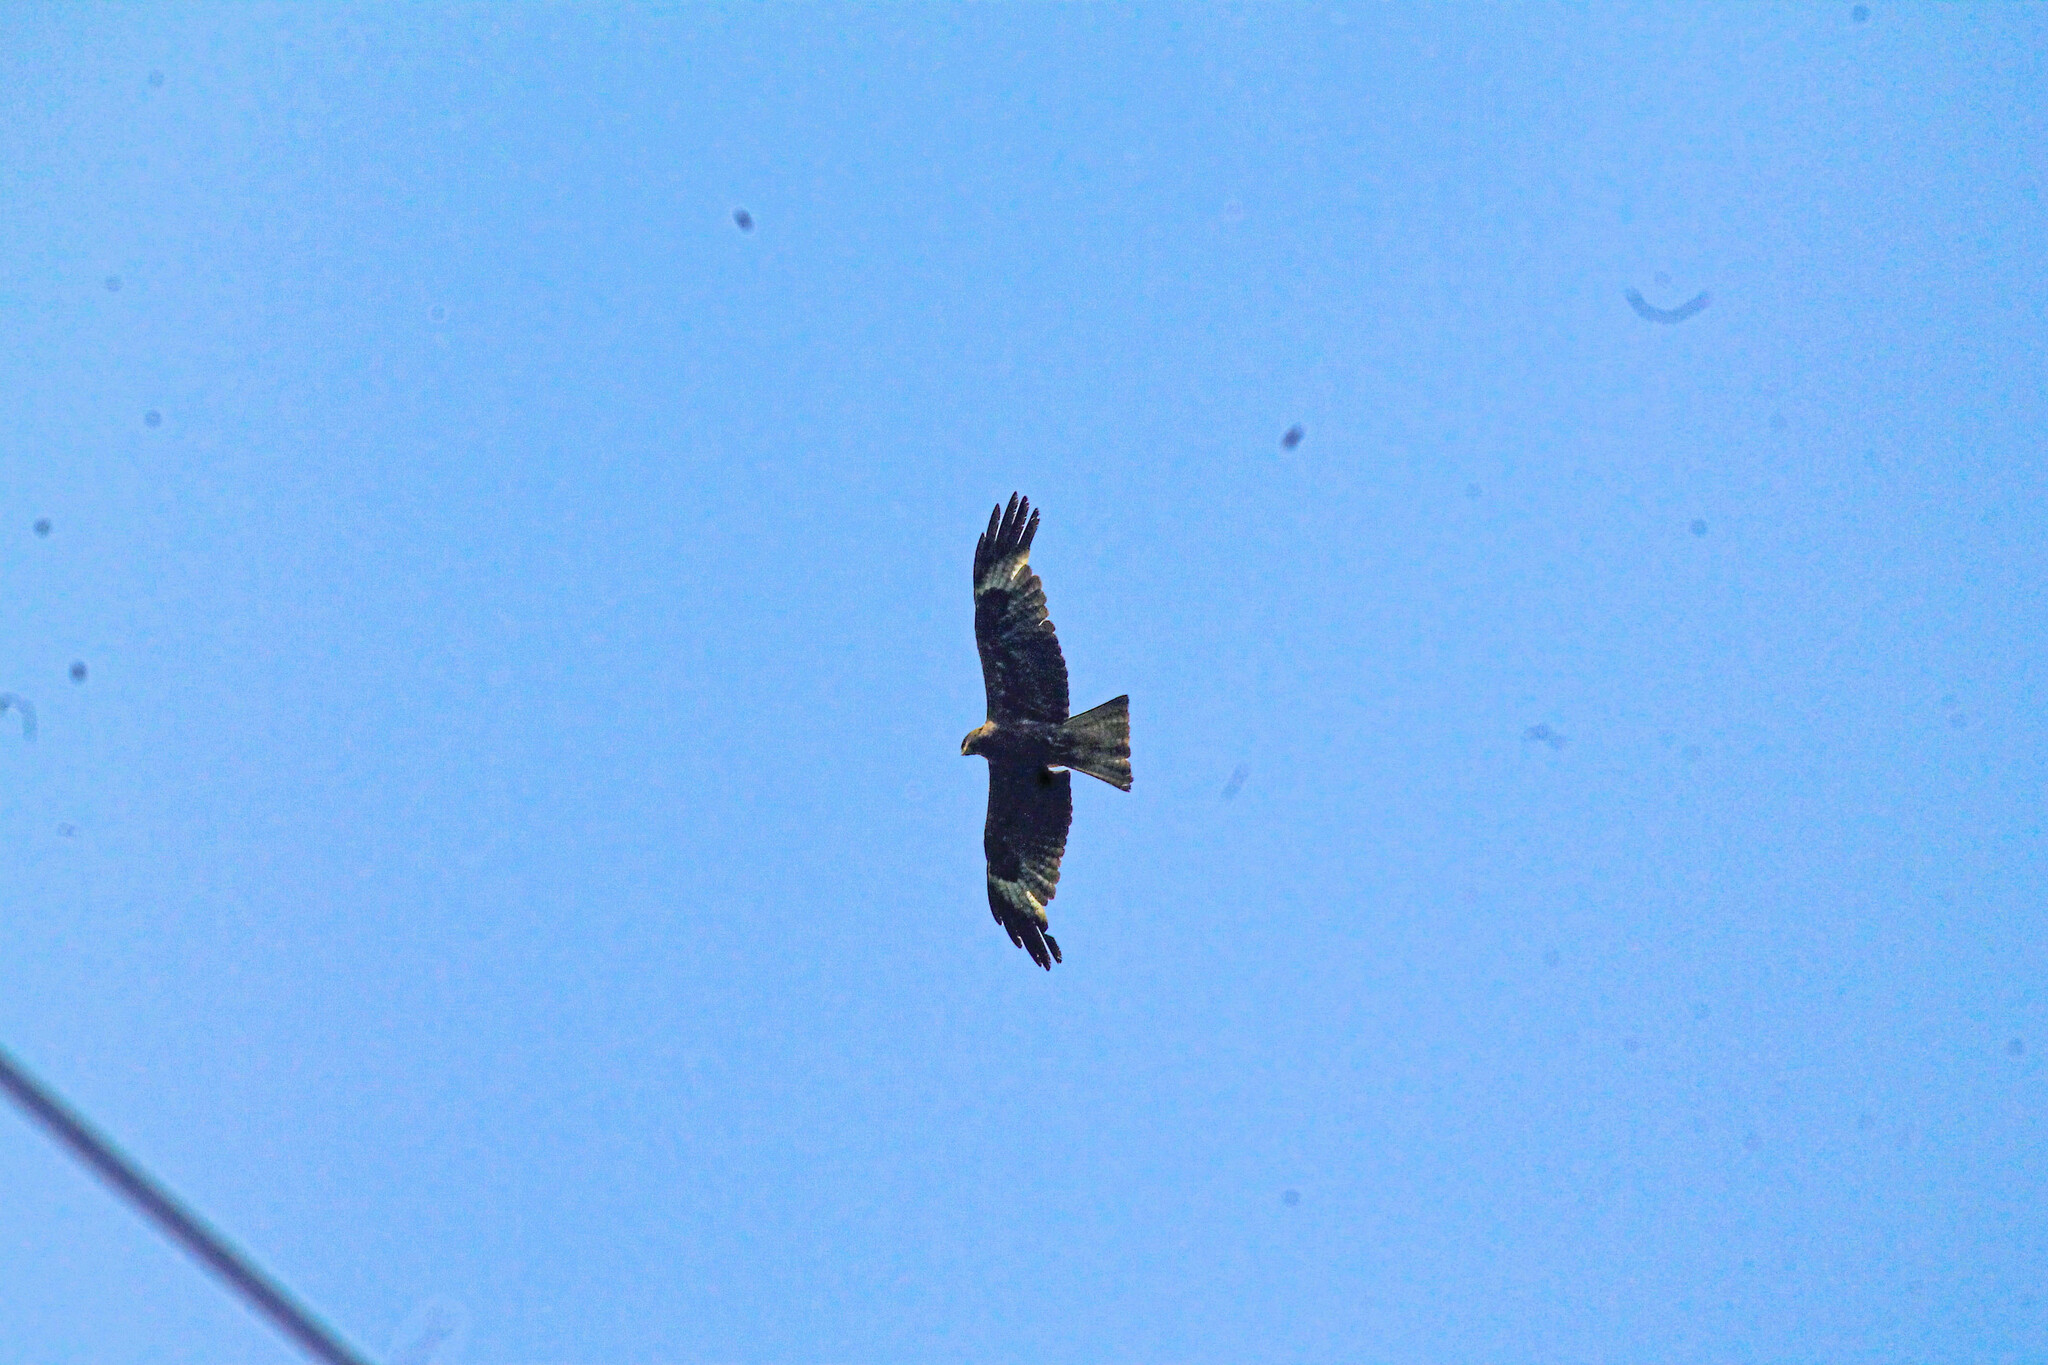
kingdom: Animalia
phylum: Chordata
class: Aves
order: Accipitriformes
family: Accipitridae
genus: Milvus
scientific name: Milvus migrans
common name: Black kite
